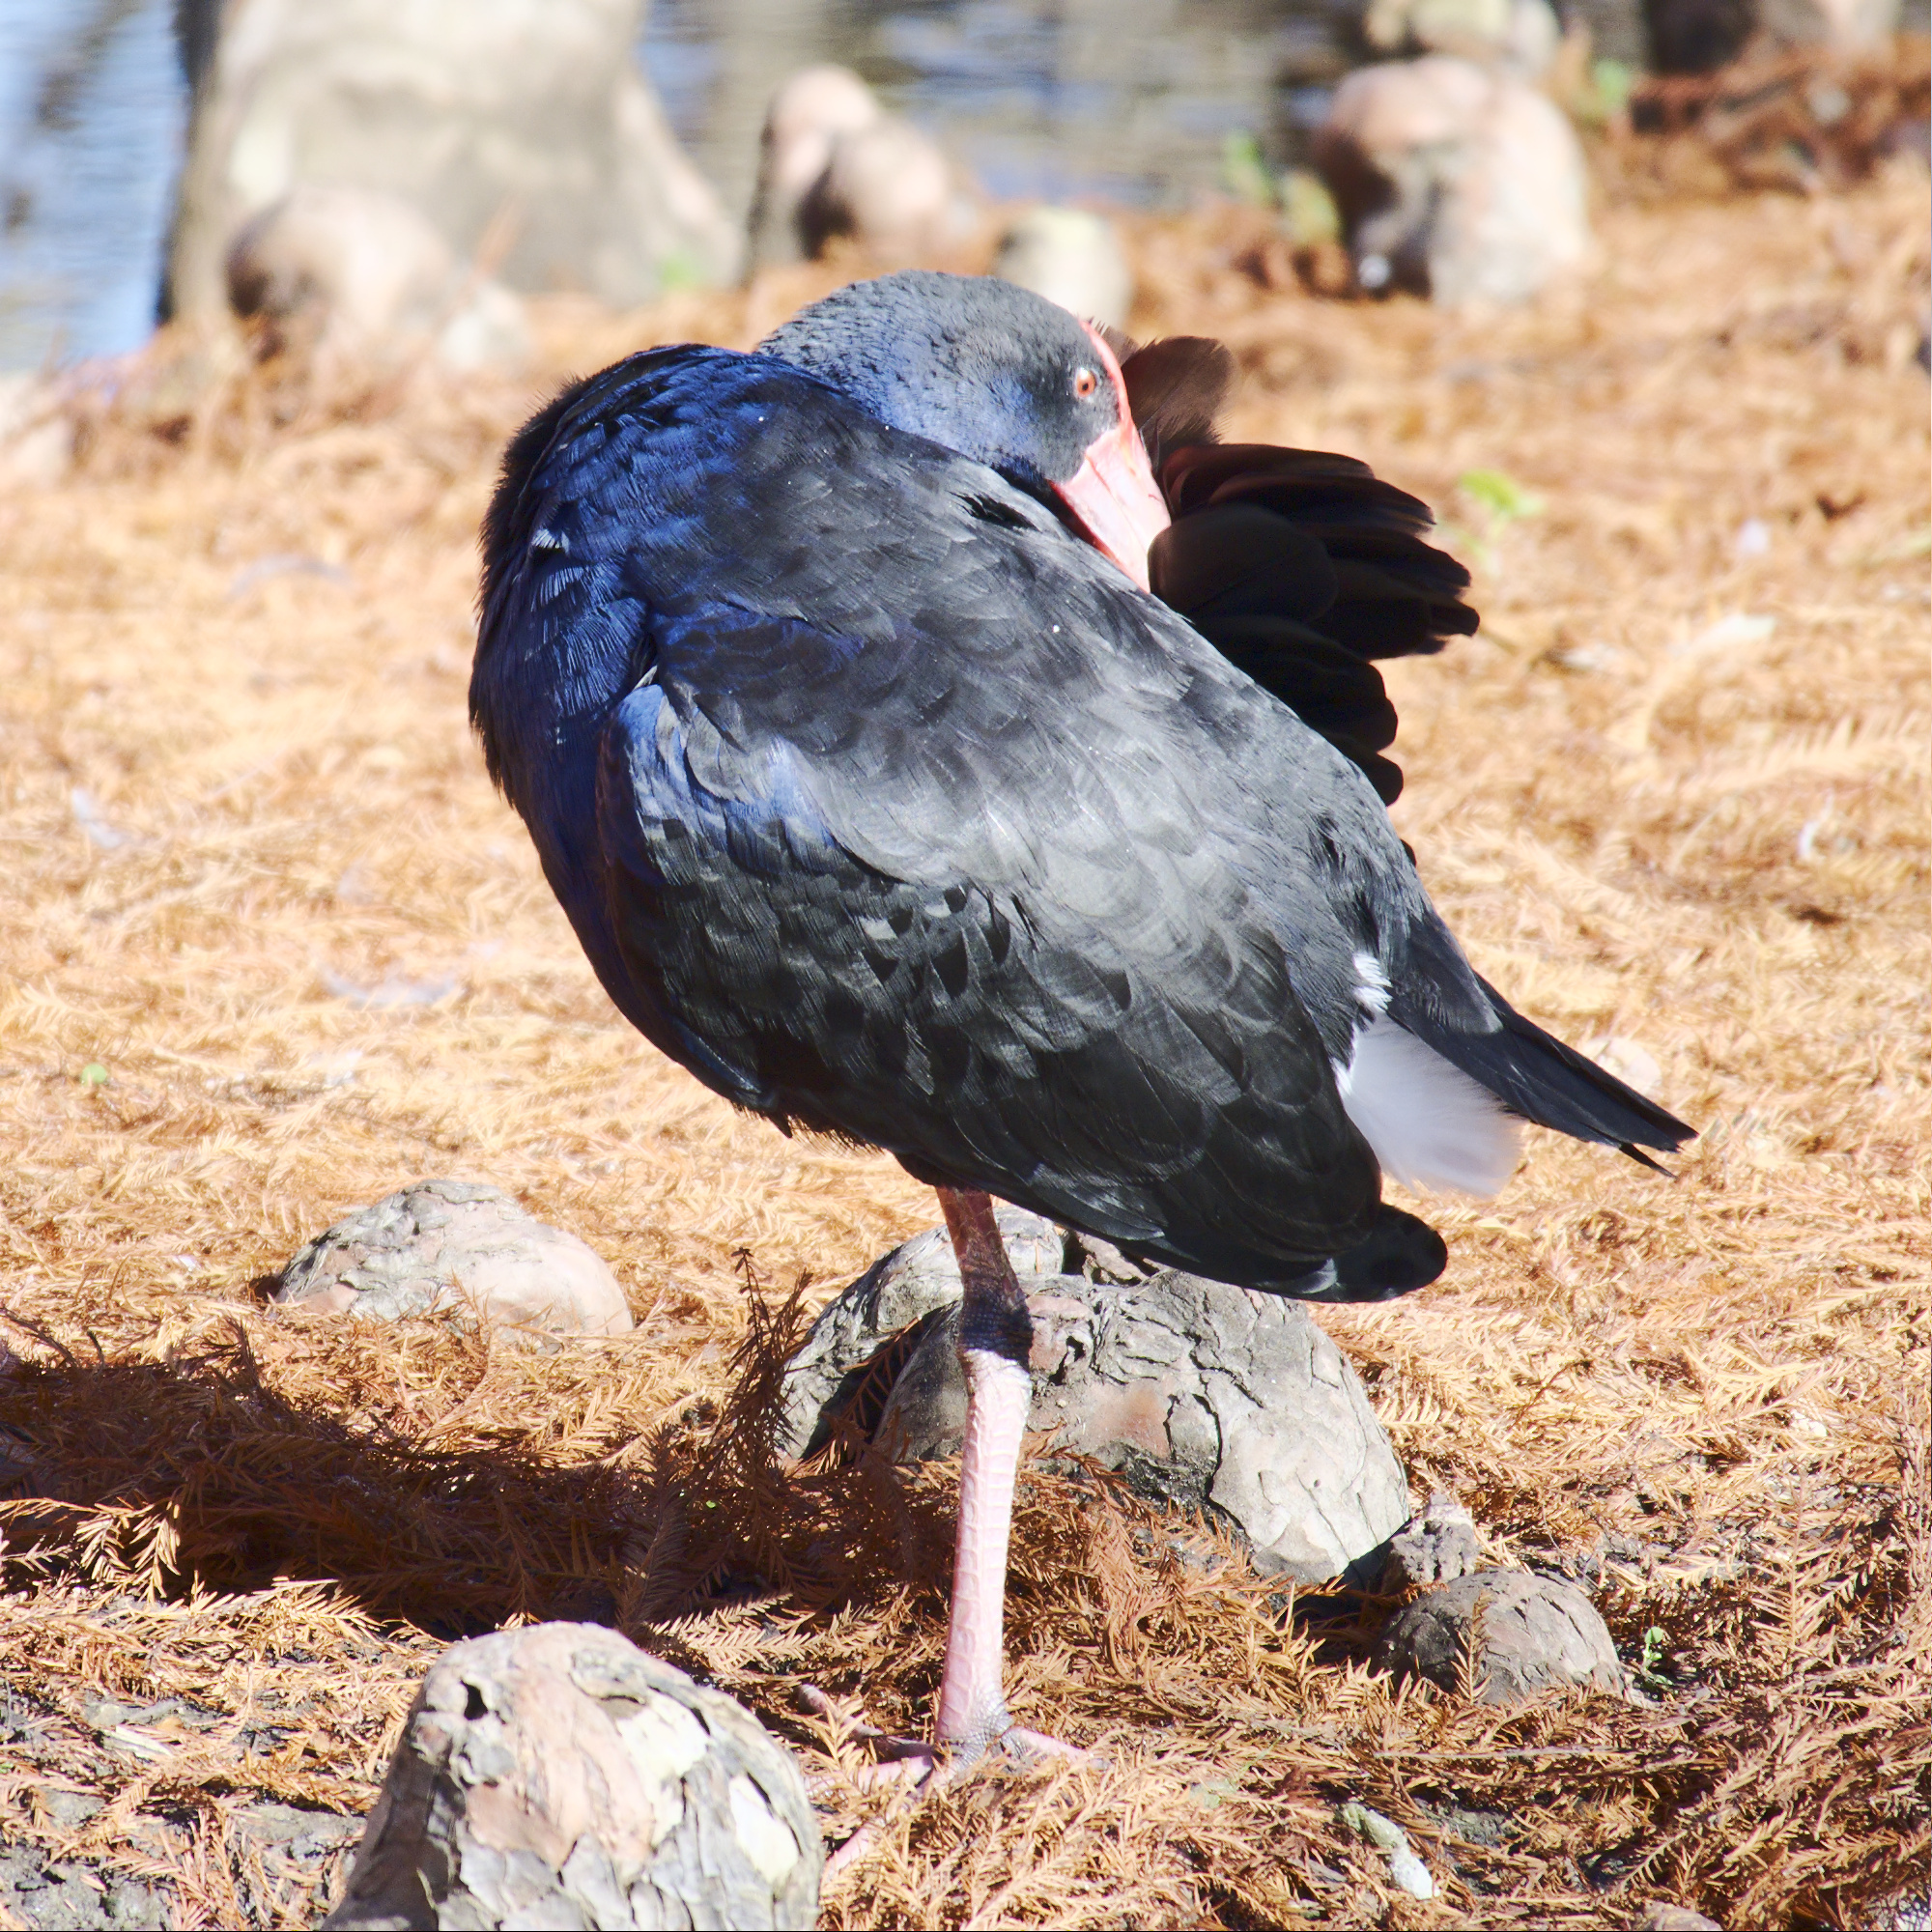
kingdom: Animalia
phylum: Chordata
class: Aves
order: Gruiformes
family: Rallidae
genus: Porphyrio
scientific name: Porphyrio melanotus
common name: Australasian swamphen
